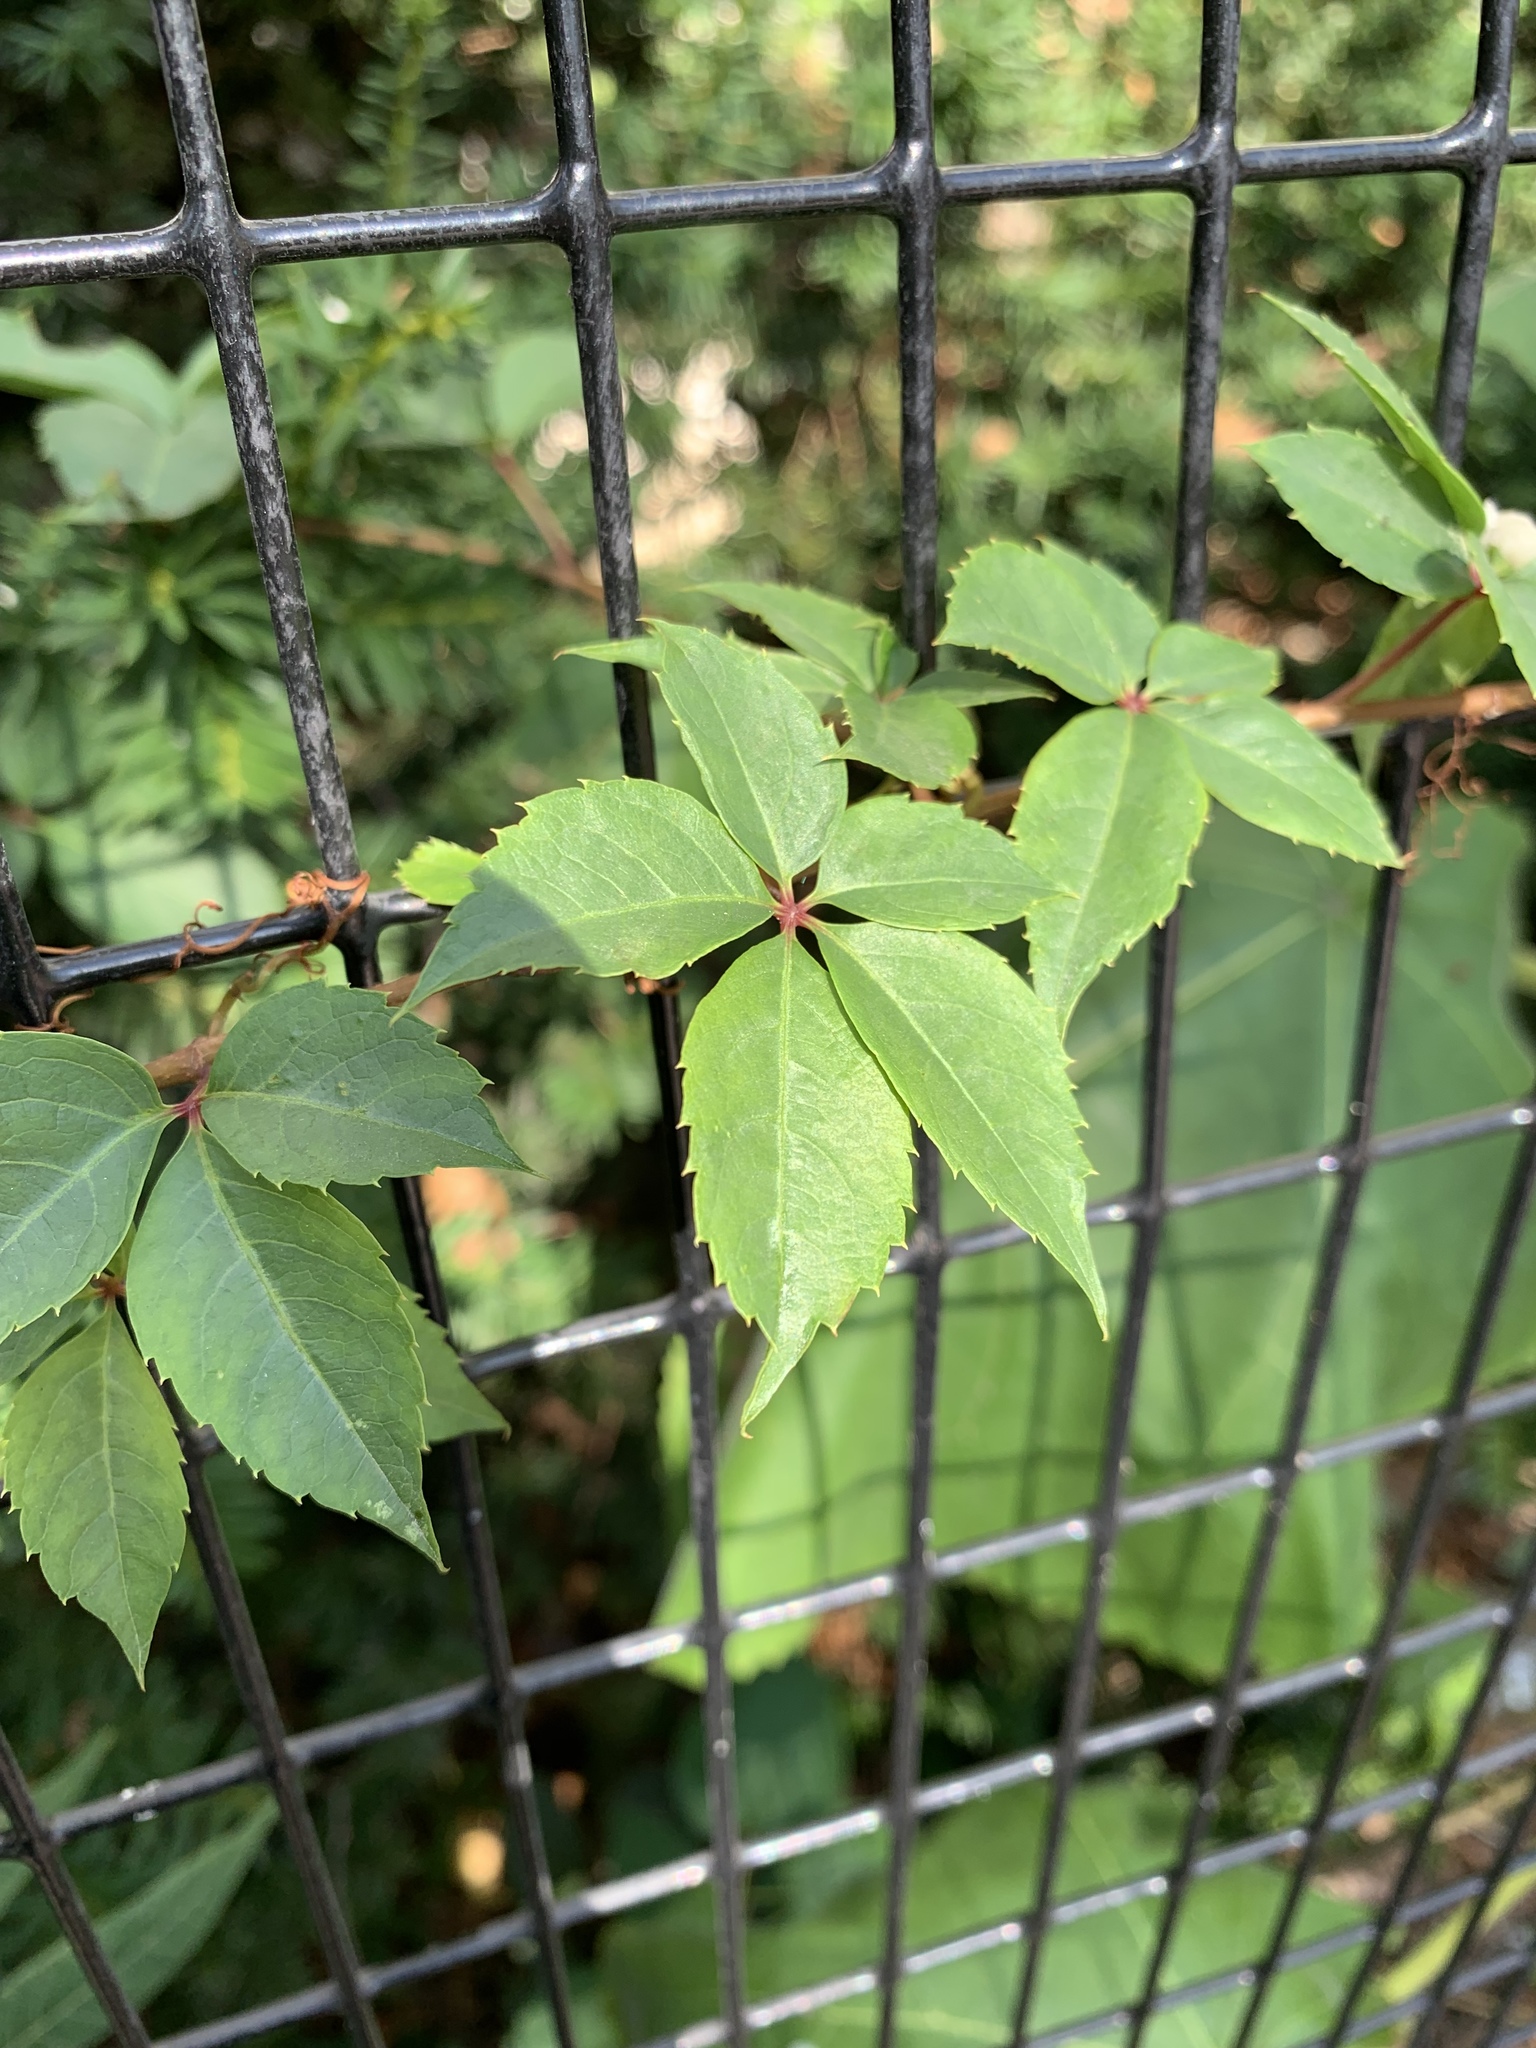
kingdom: Plantae
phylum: Tracheophyta
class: Magnoliopsida
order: Vitales
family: Vitaceae
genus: Parthenocissus
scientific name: Parthenocissus quinquefolia
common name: Virginia-creeper
